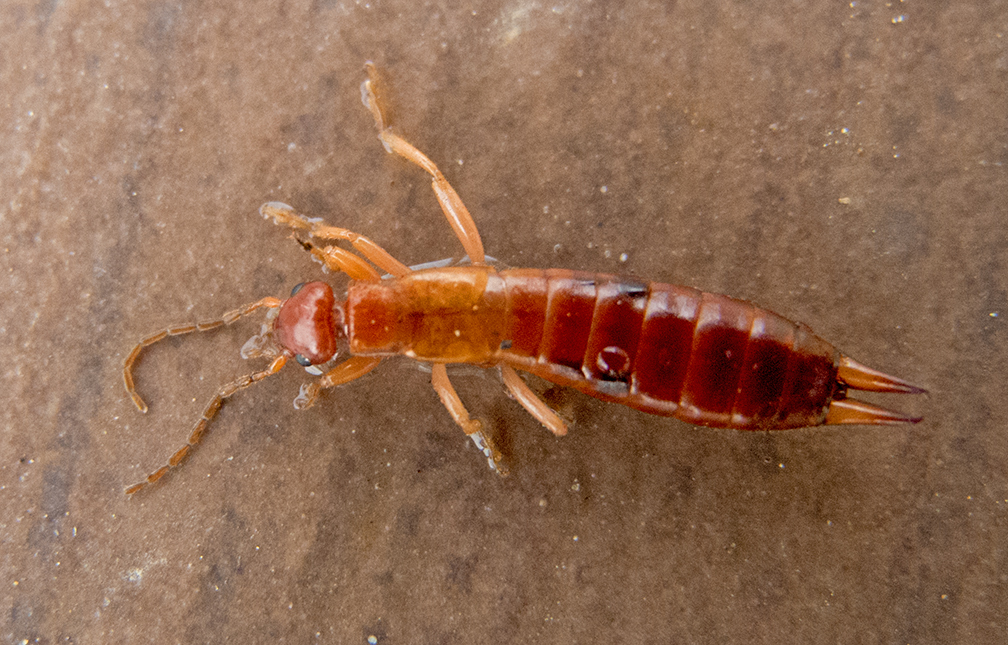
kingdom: Animalia
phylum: Arthropoda
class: Insecta
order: Dermaptera
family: Forficulidae
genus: Forficula
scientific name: Forficula aetolica
